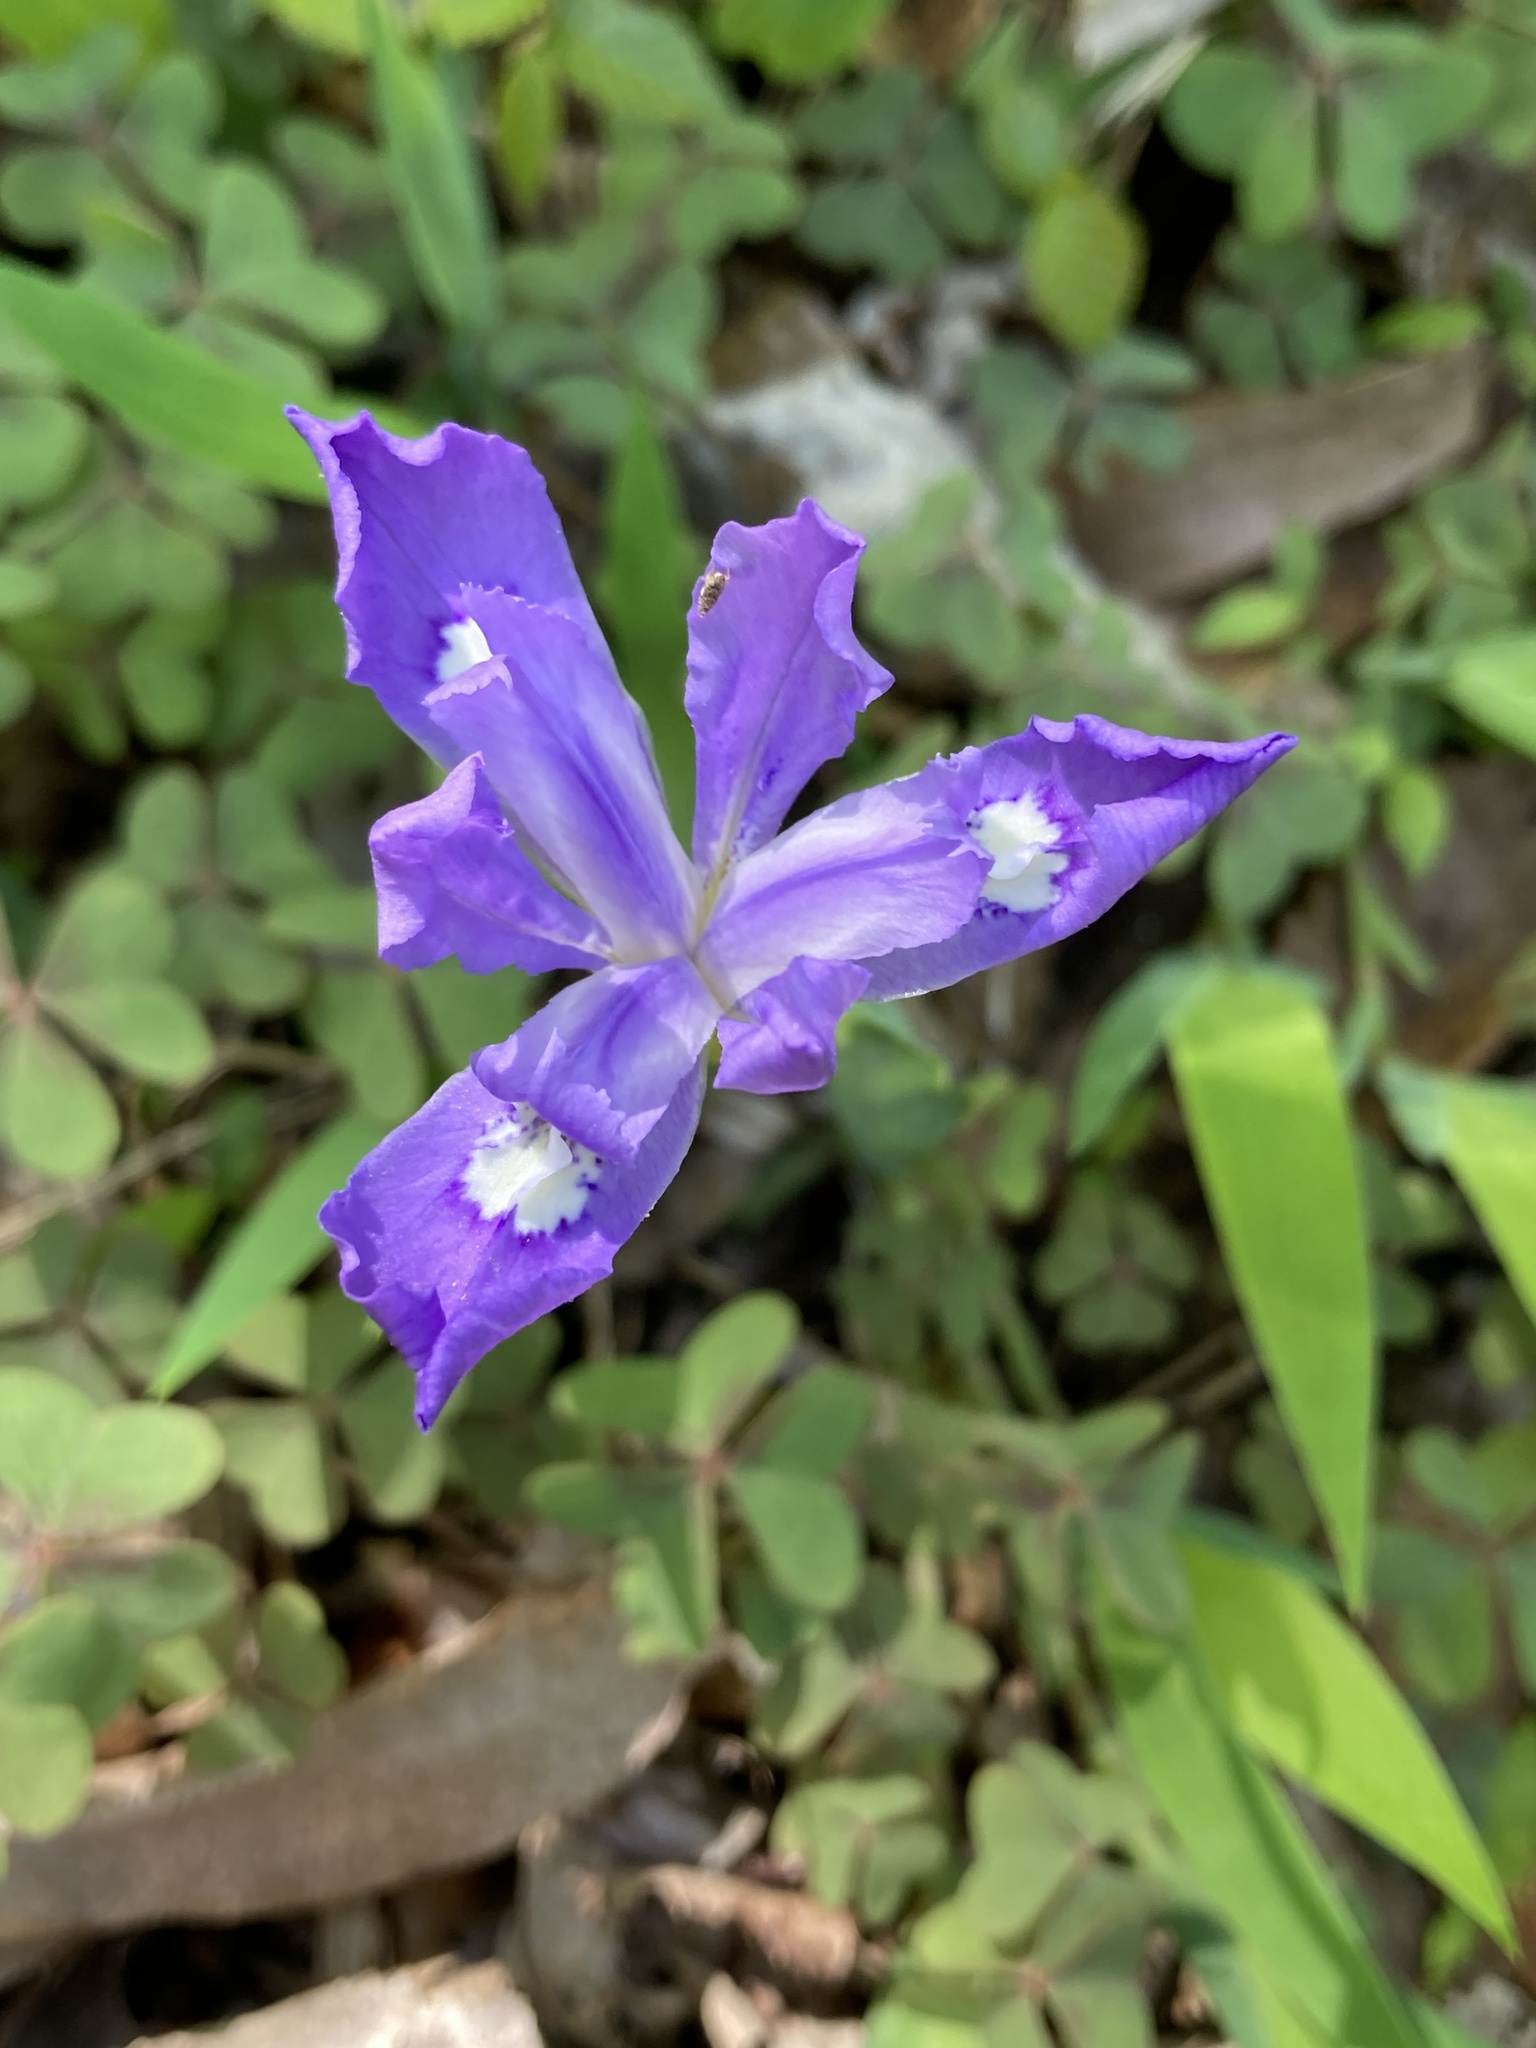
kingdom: Plantae
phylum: Tracheophyta
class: Liliopsida
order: Asparagales
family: Iridaceae
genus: Iris
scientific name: Iris cristata
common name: Crested iris
